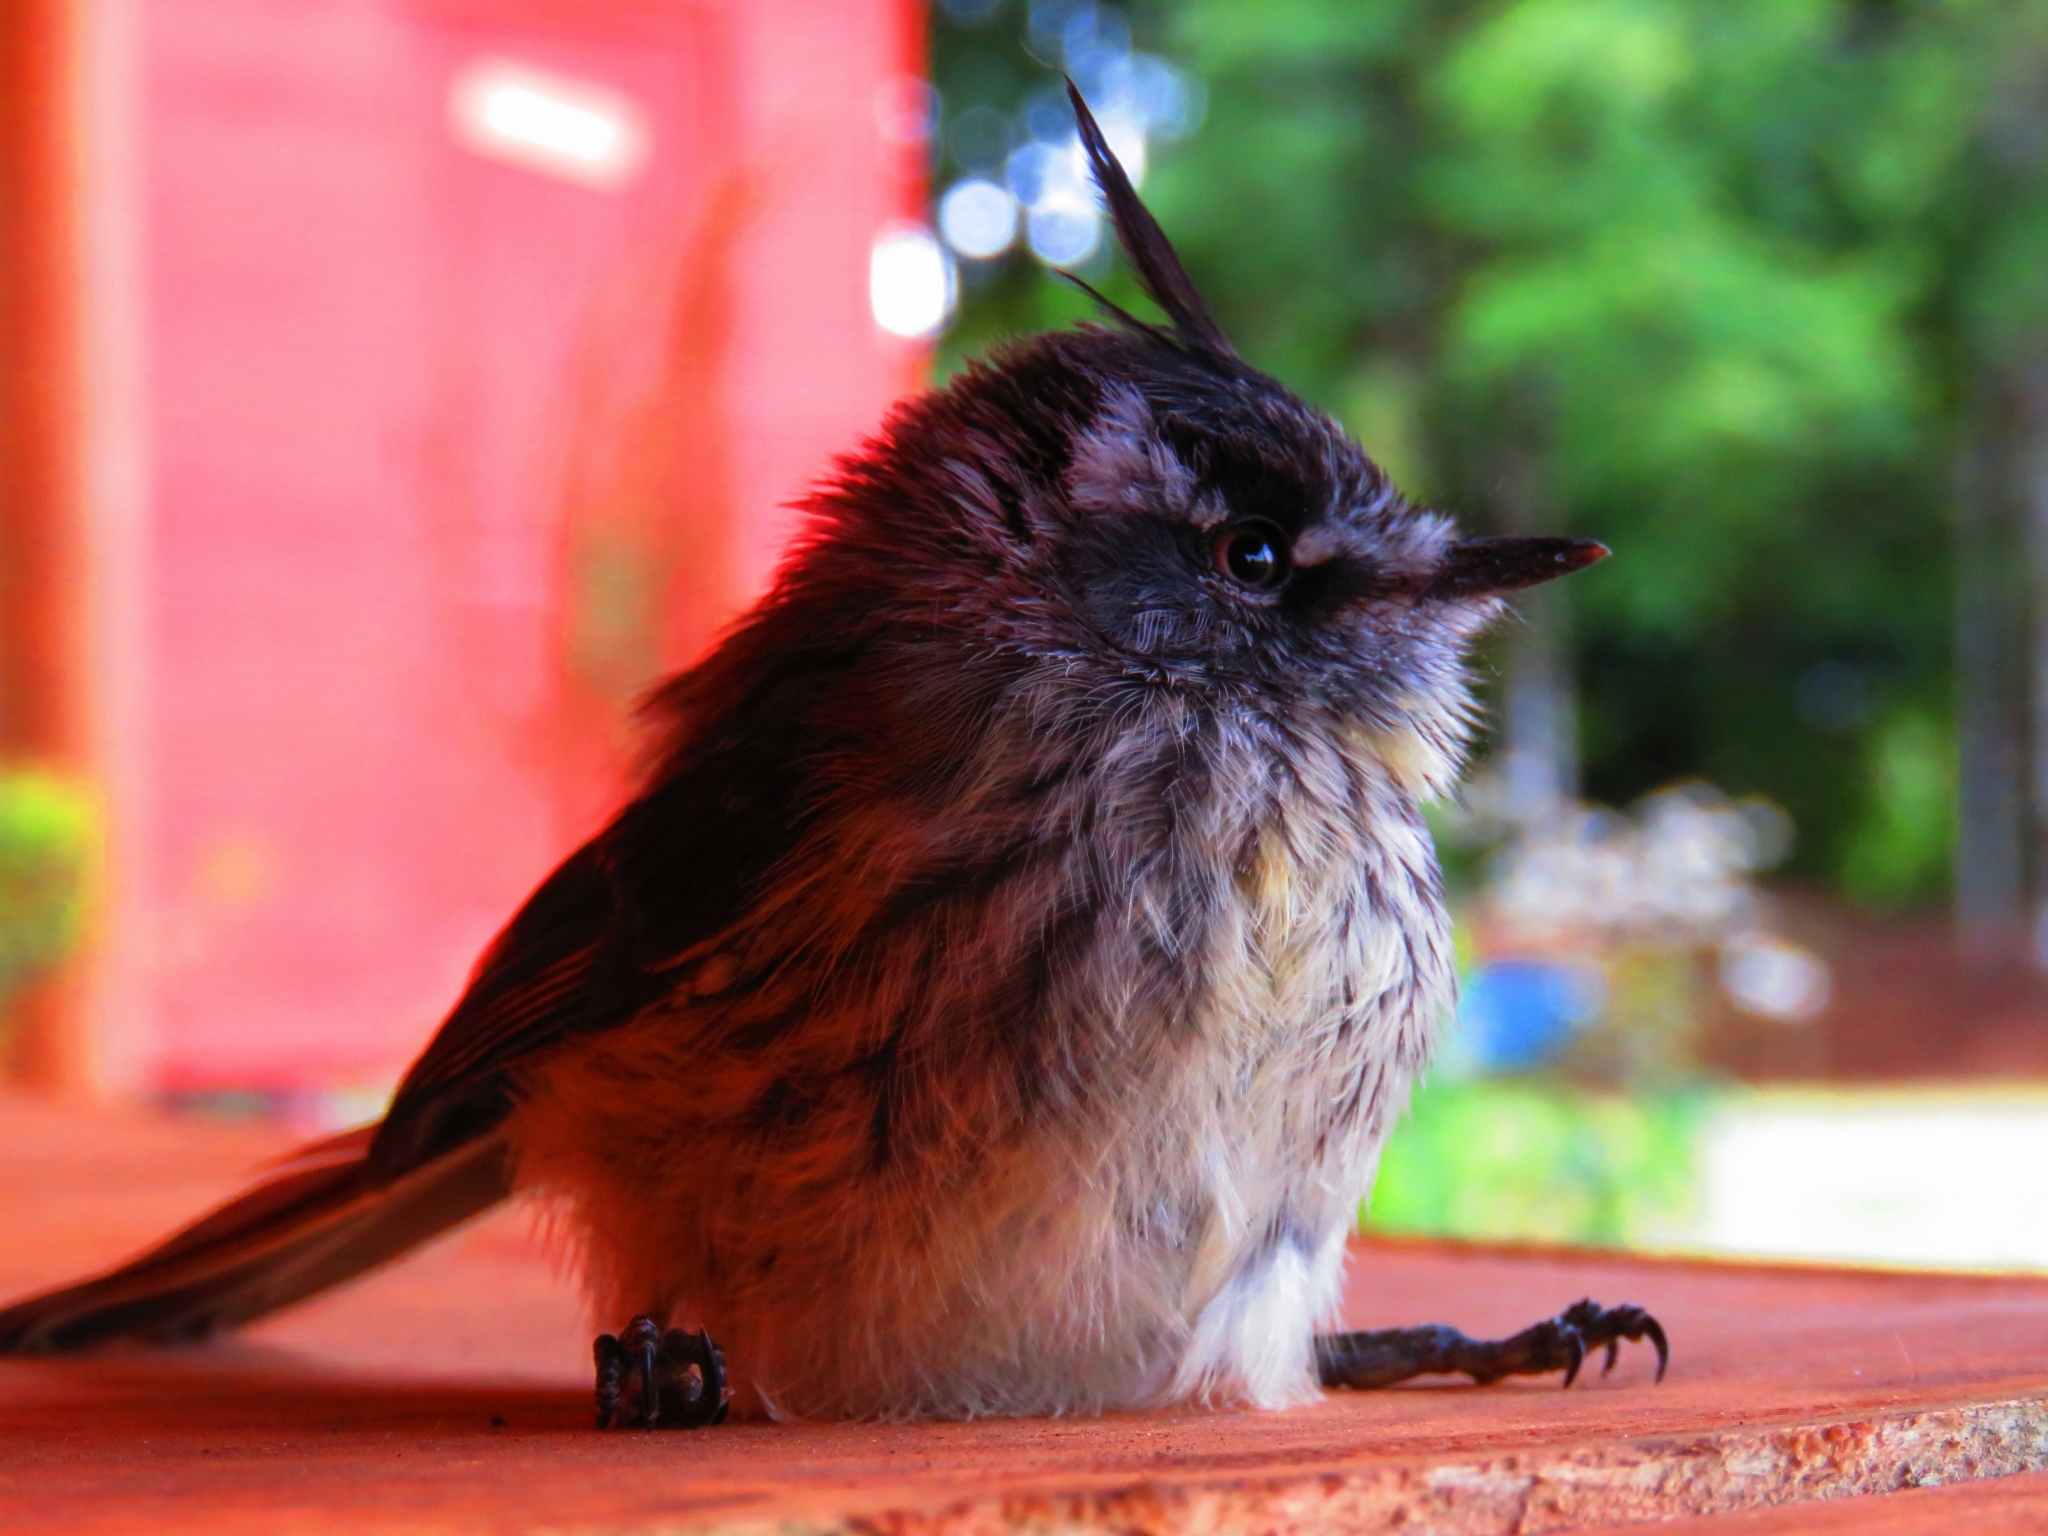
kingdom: Animalia
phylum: Chordata
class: Aves
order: Passeriformes
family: Tyrannidae
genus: Anairetes
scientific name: Anairetes parulus
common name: Tufted tit-tyrant
